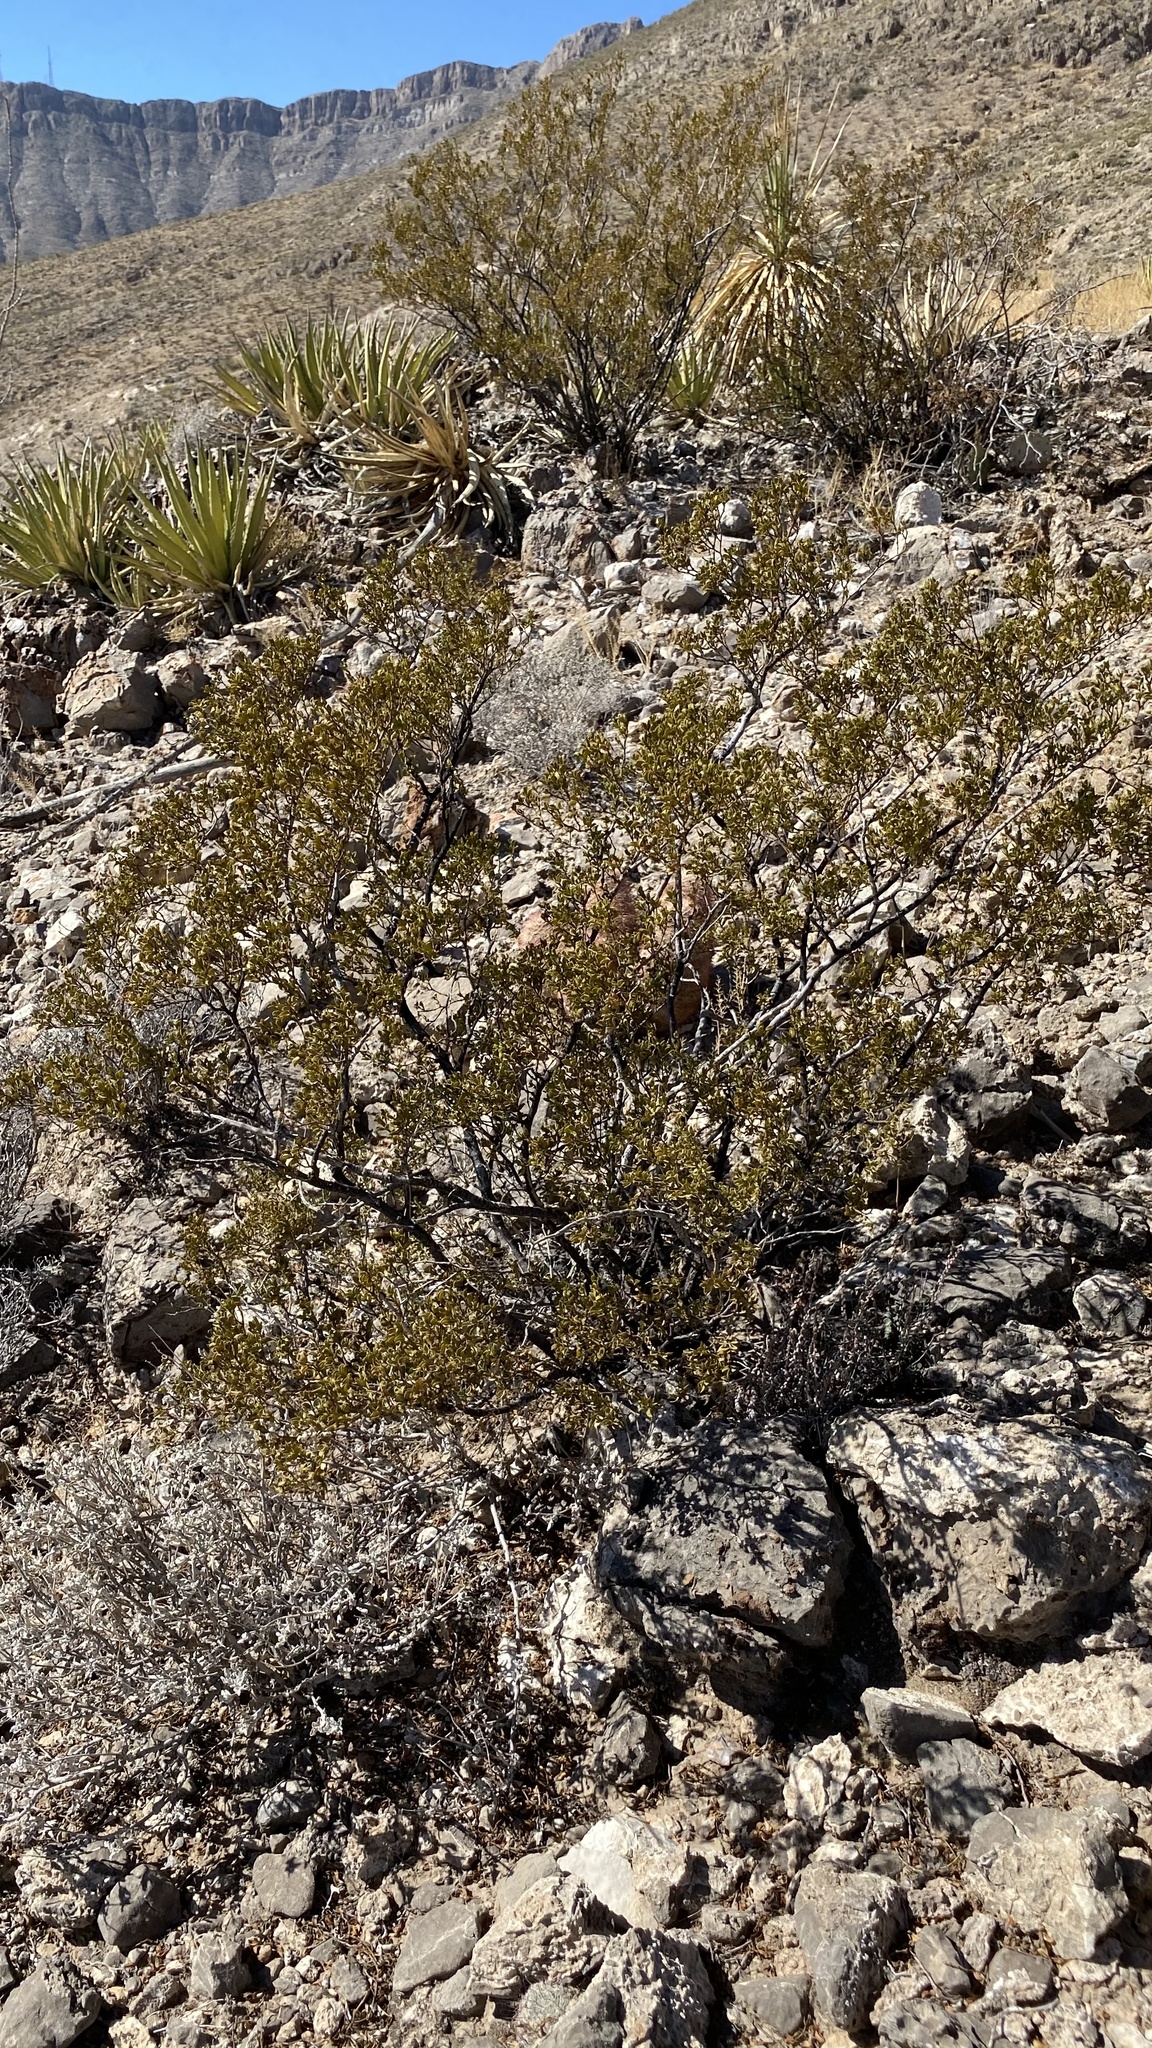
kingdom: Plantae
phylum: Tracheophyta
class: Magnoliopsida
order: Zygophyllales
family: Zygophyllaceae
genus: Larrea
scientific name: Larrea tridentata
